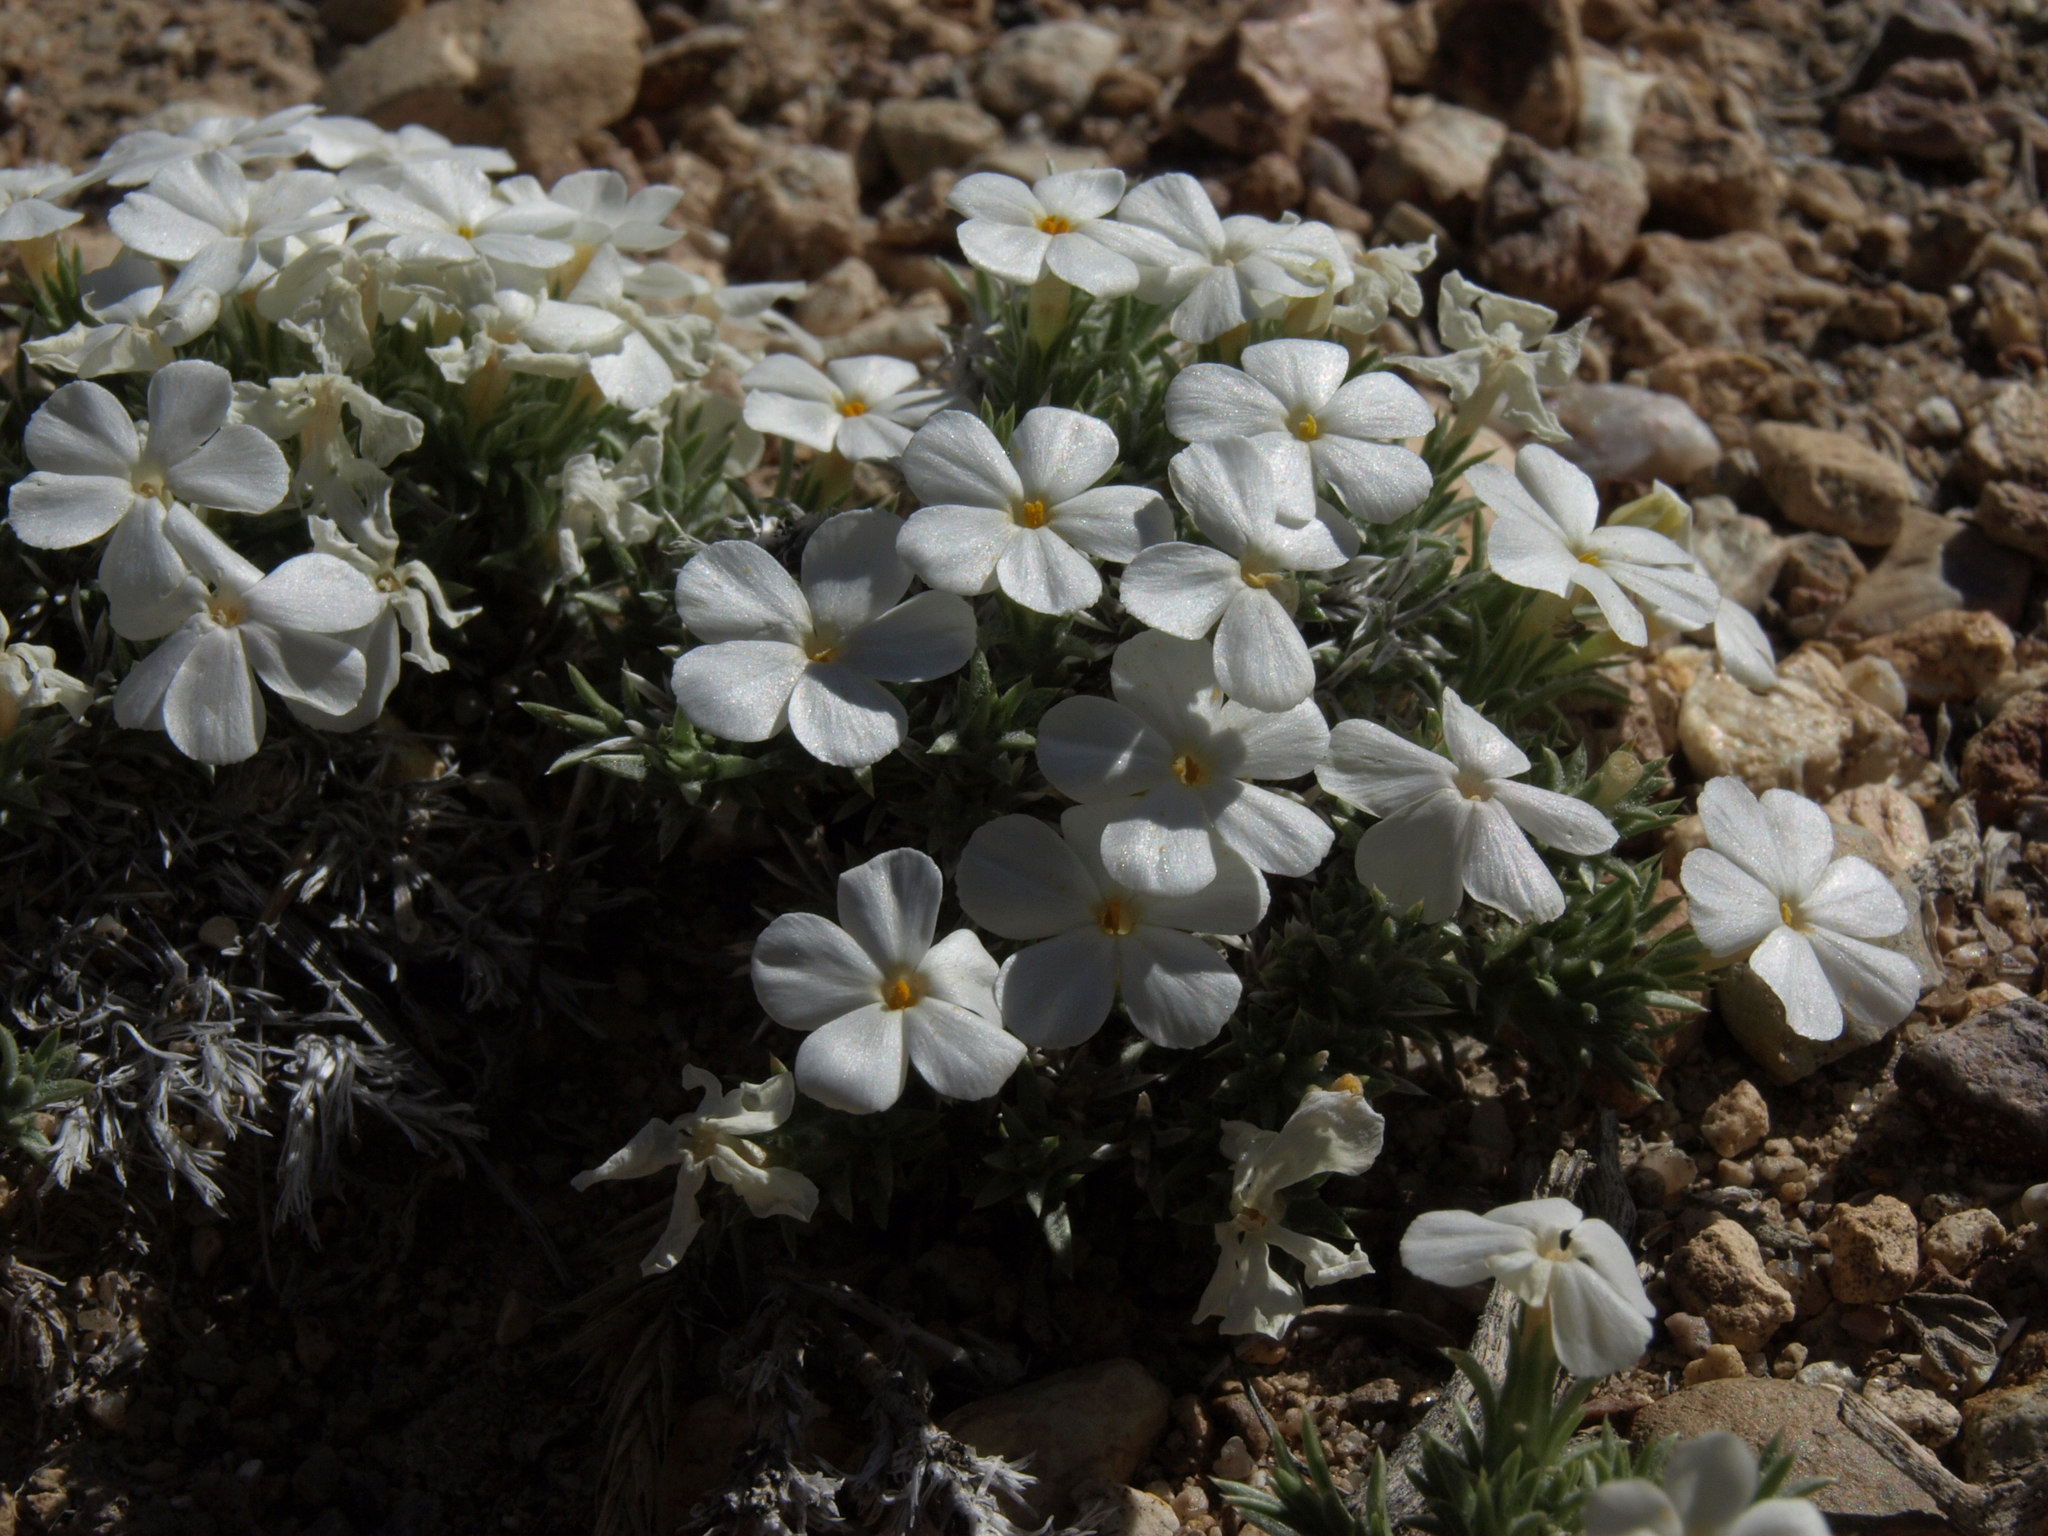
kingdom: Plantae
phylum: Tracheophyta
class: Magnoliopsida
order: Ericales
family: Polemoniaceae
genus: Phlox
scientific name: Phlox hoodii
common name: Moss phlox
